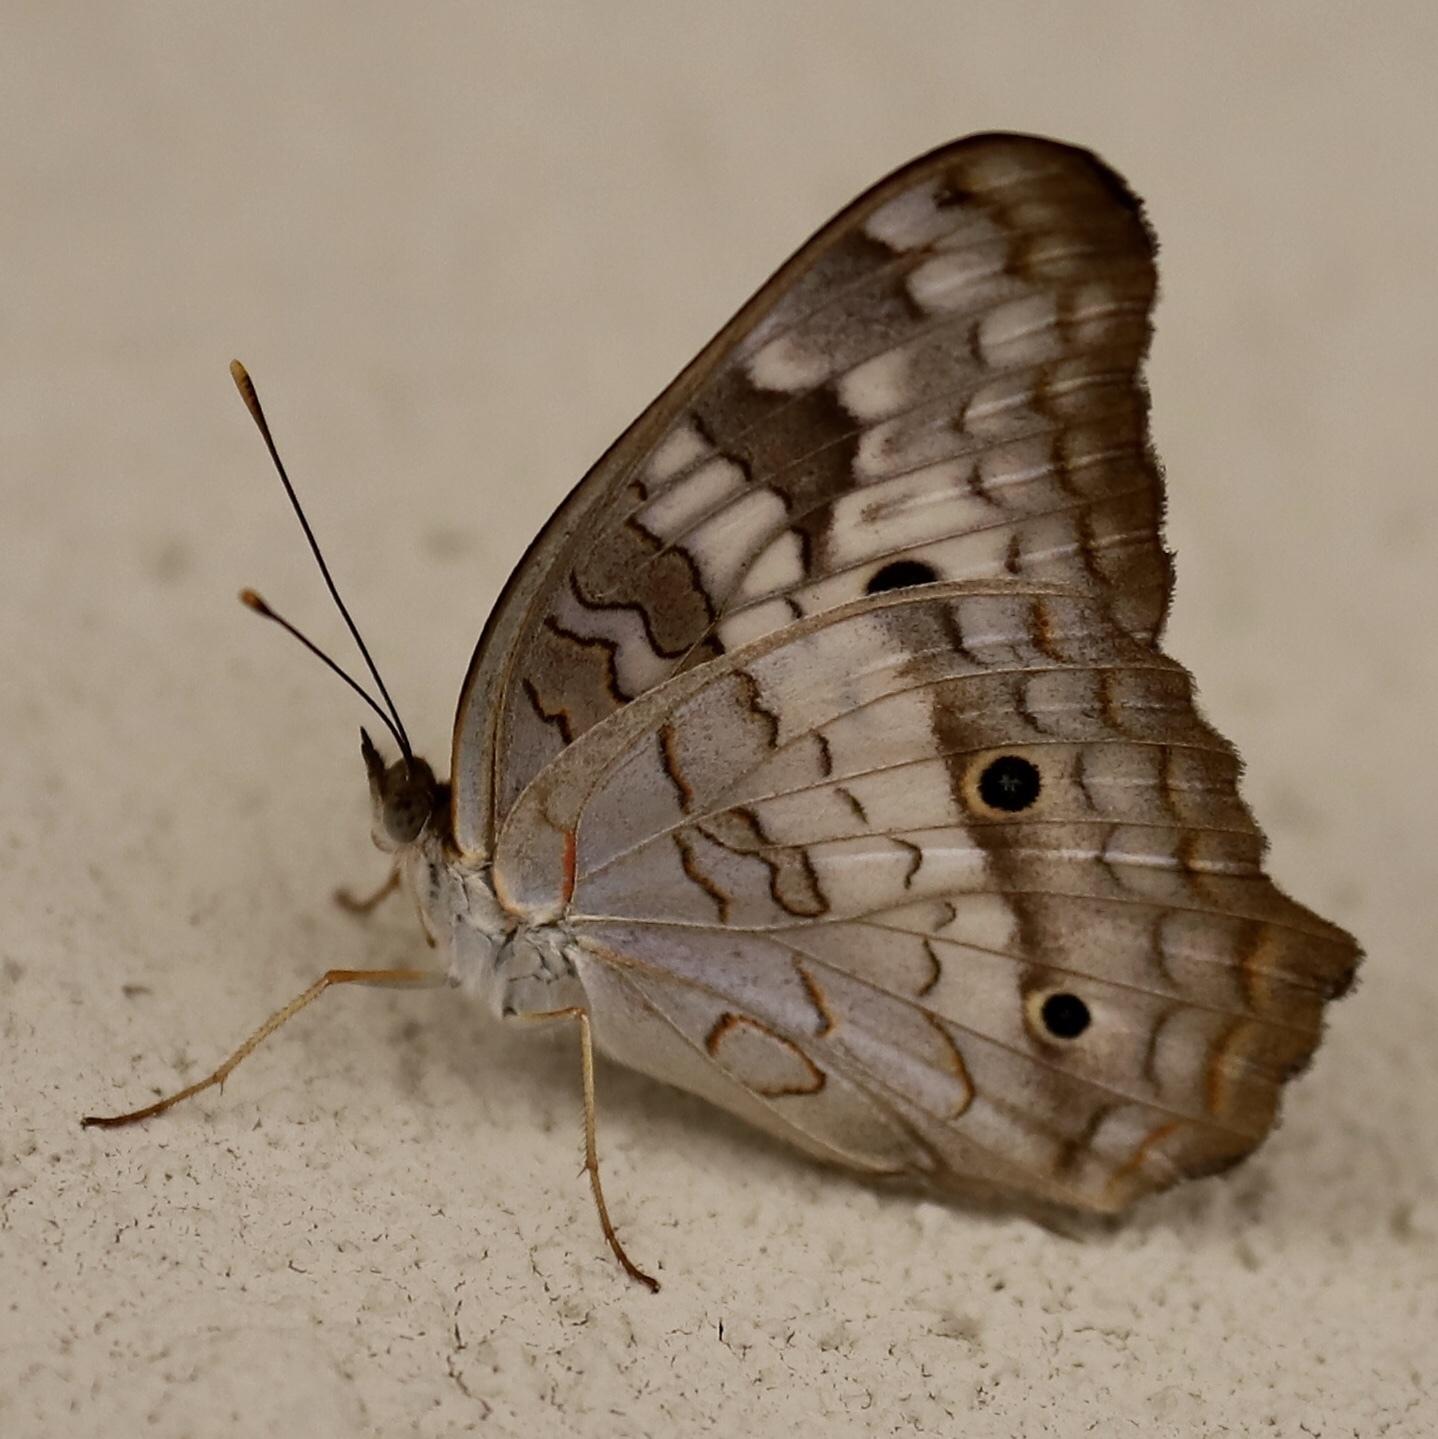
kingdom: Animalia
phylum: Arthropoda
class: Insecta
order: Lepidoptera
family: Nymphalidae
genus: Anartia
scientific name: Anartia jatrophae
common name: White peacock
